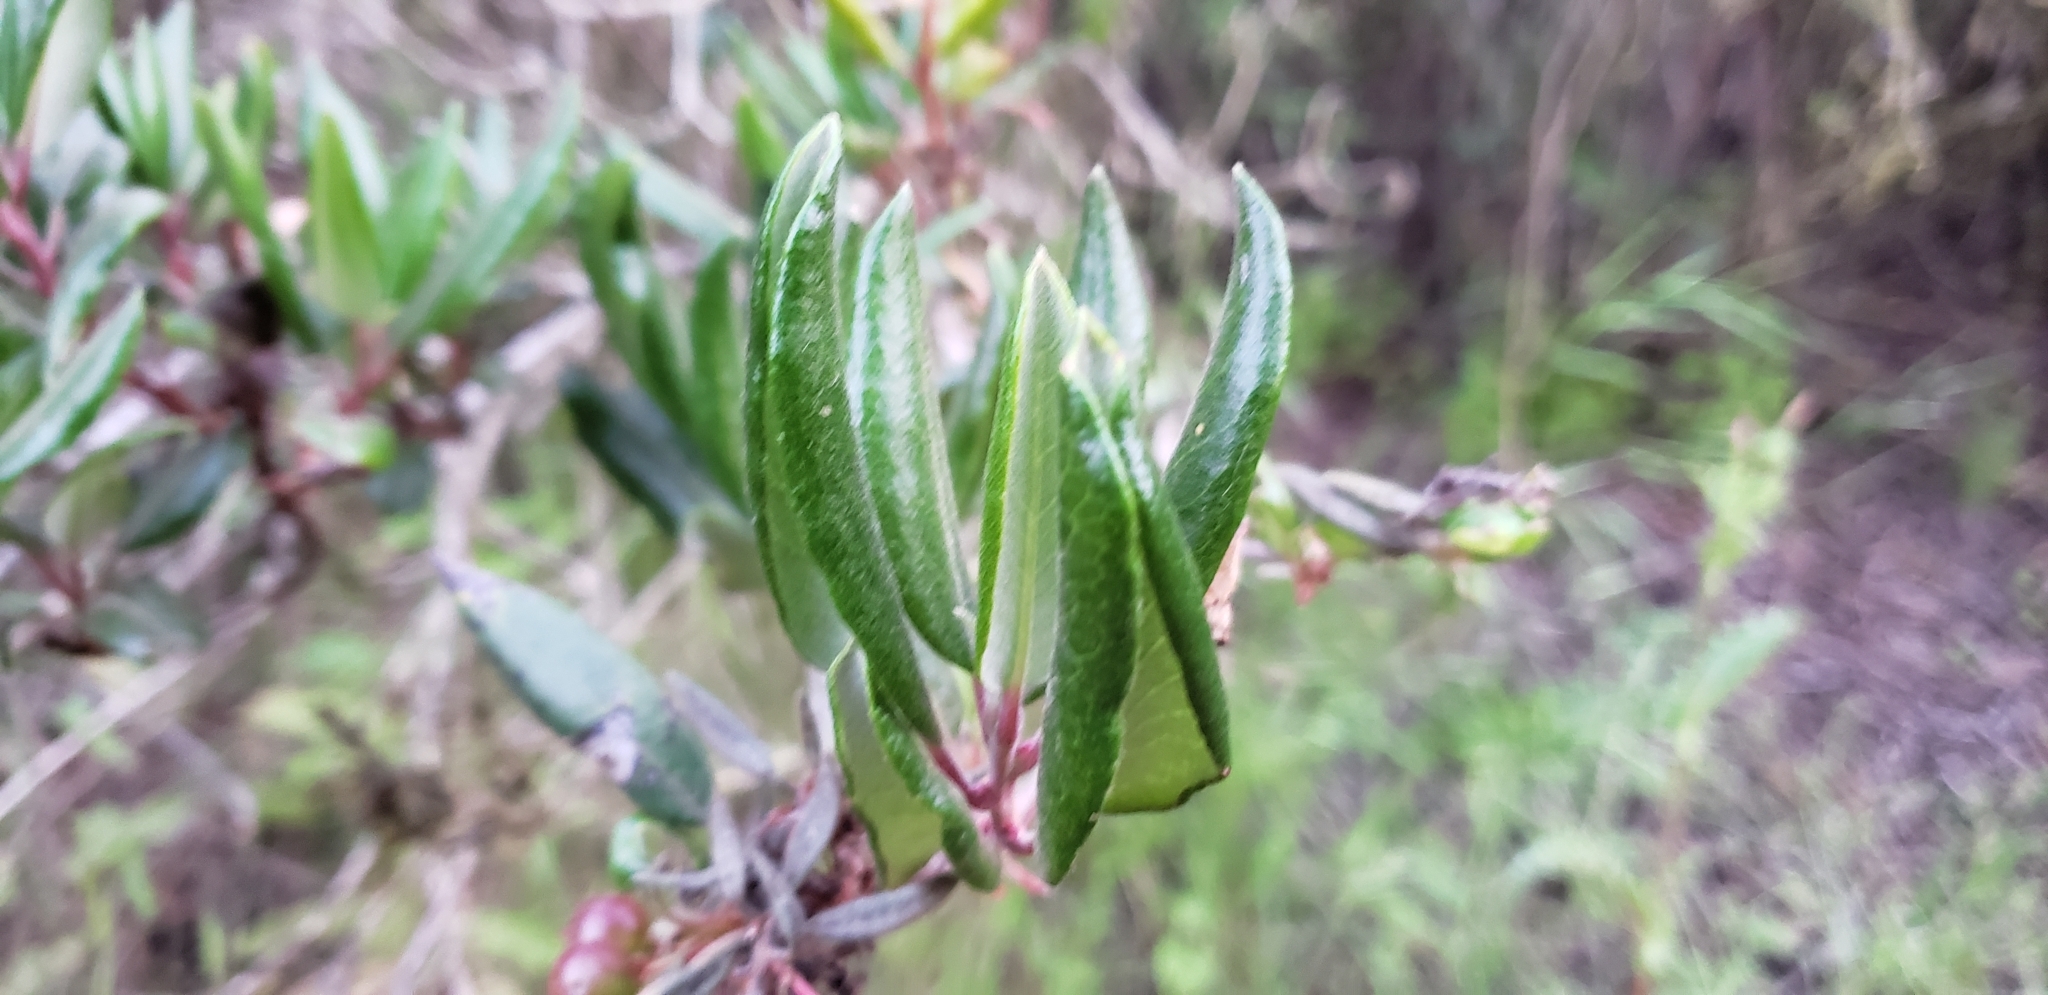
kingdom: Plantae
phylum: Tracheophyta
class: Magnoliopsida
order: Ericales
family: Ericaceae
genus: Arctostaphylos
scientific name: Arctostaphylos bicolor
